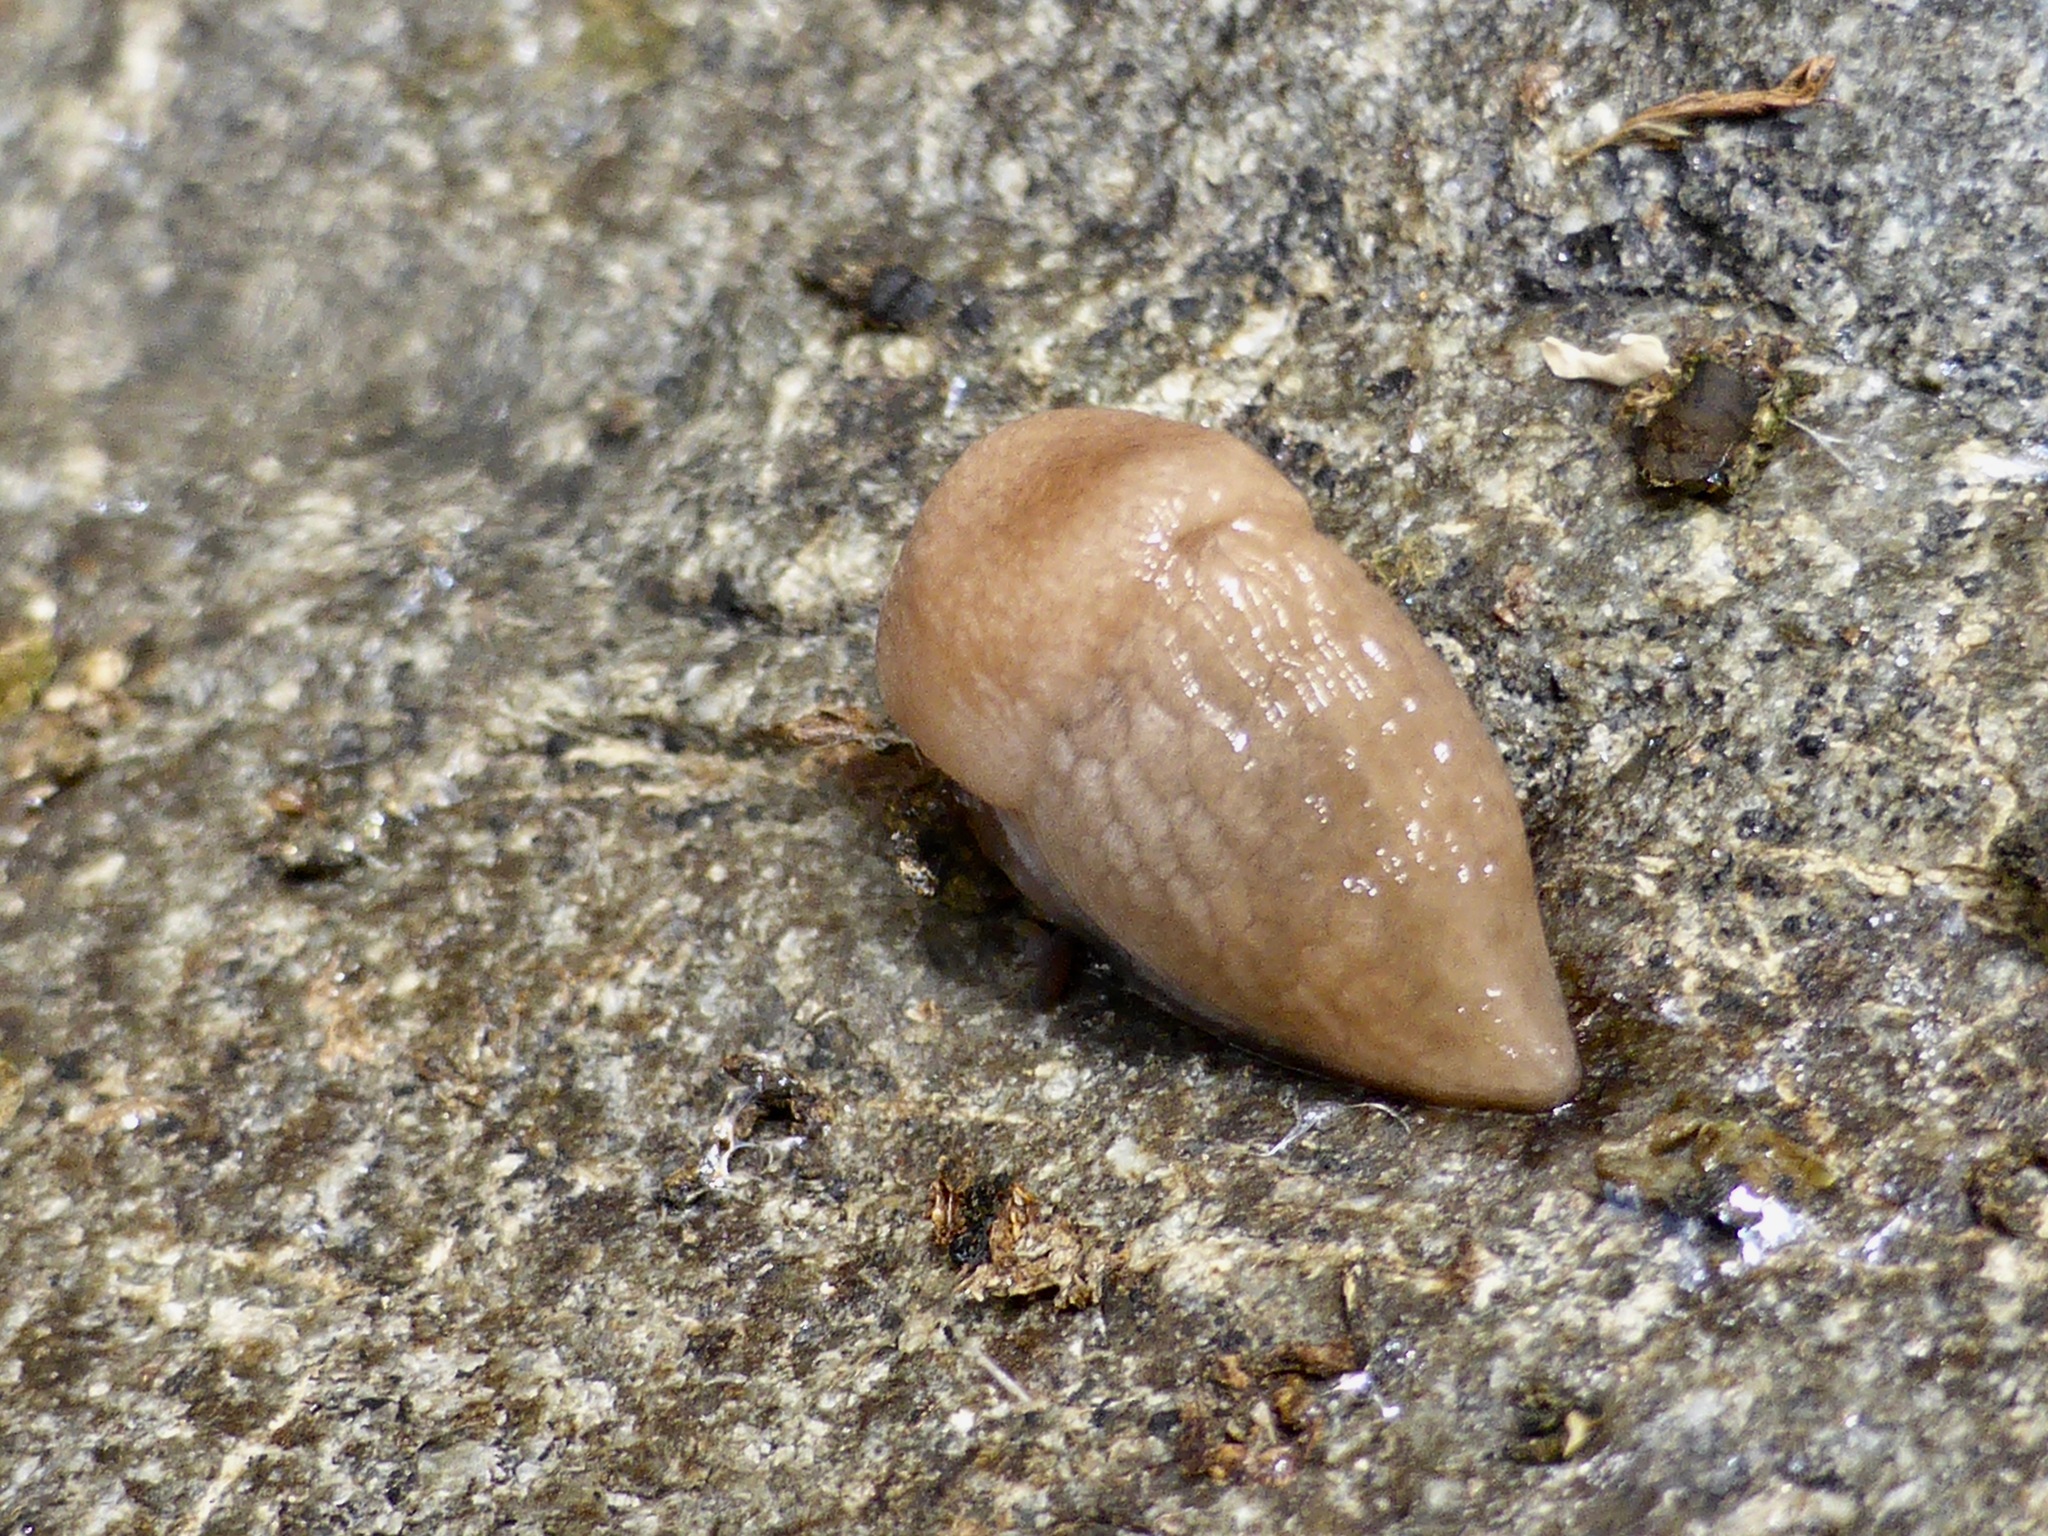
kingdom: Animalia
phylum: Mollusca
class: Gastropoda
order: Stylommatophora
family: Agriolimacidae
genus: Deroceras
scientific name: Deroceras reticulatum
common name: Gray field slug
